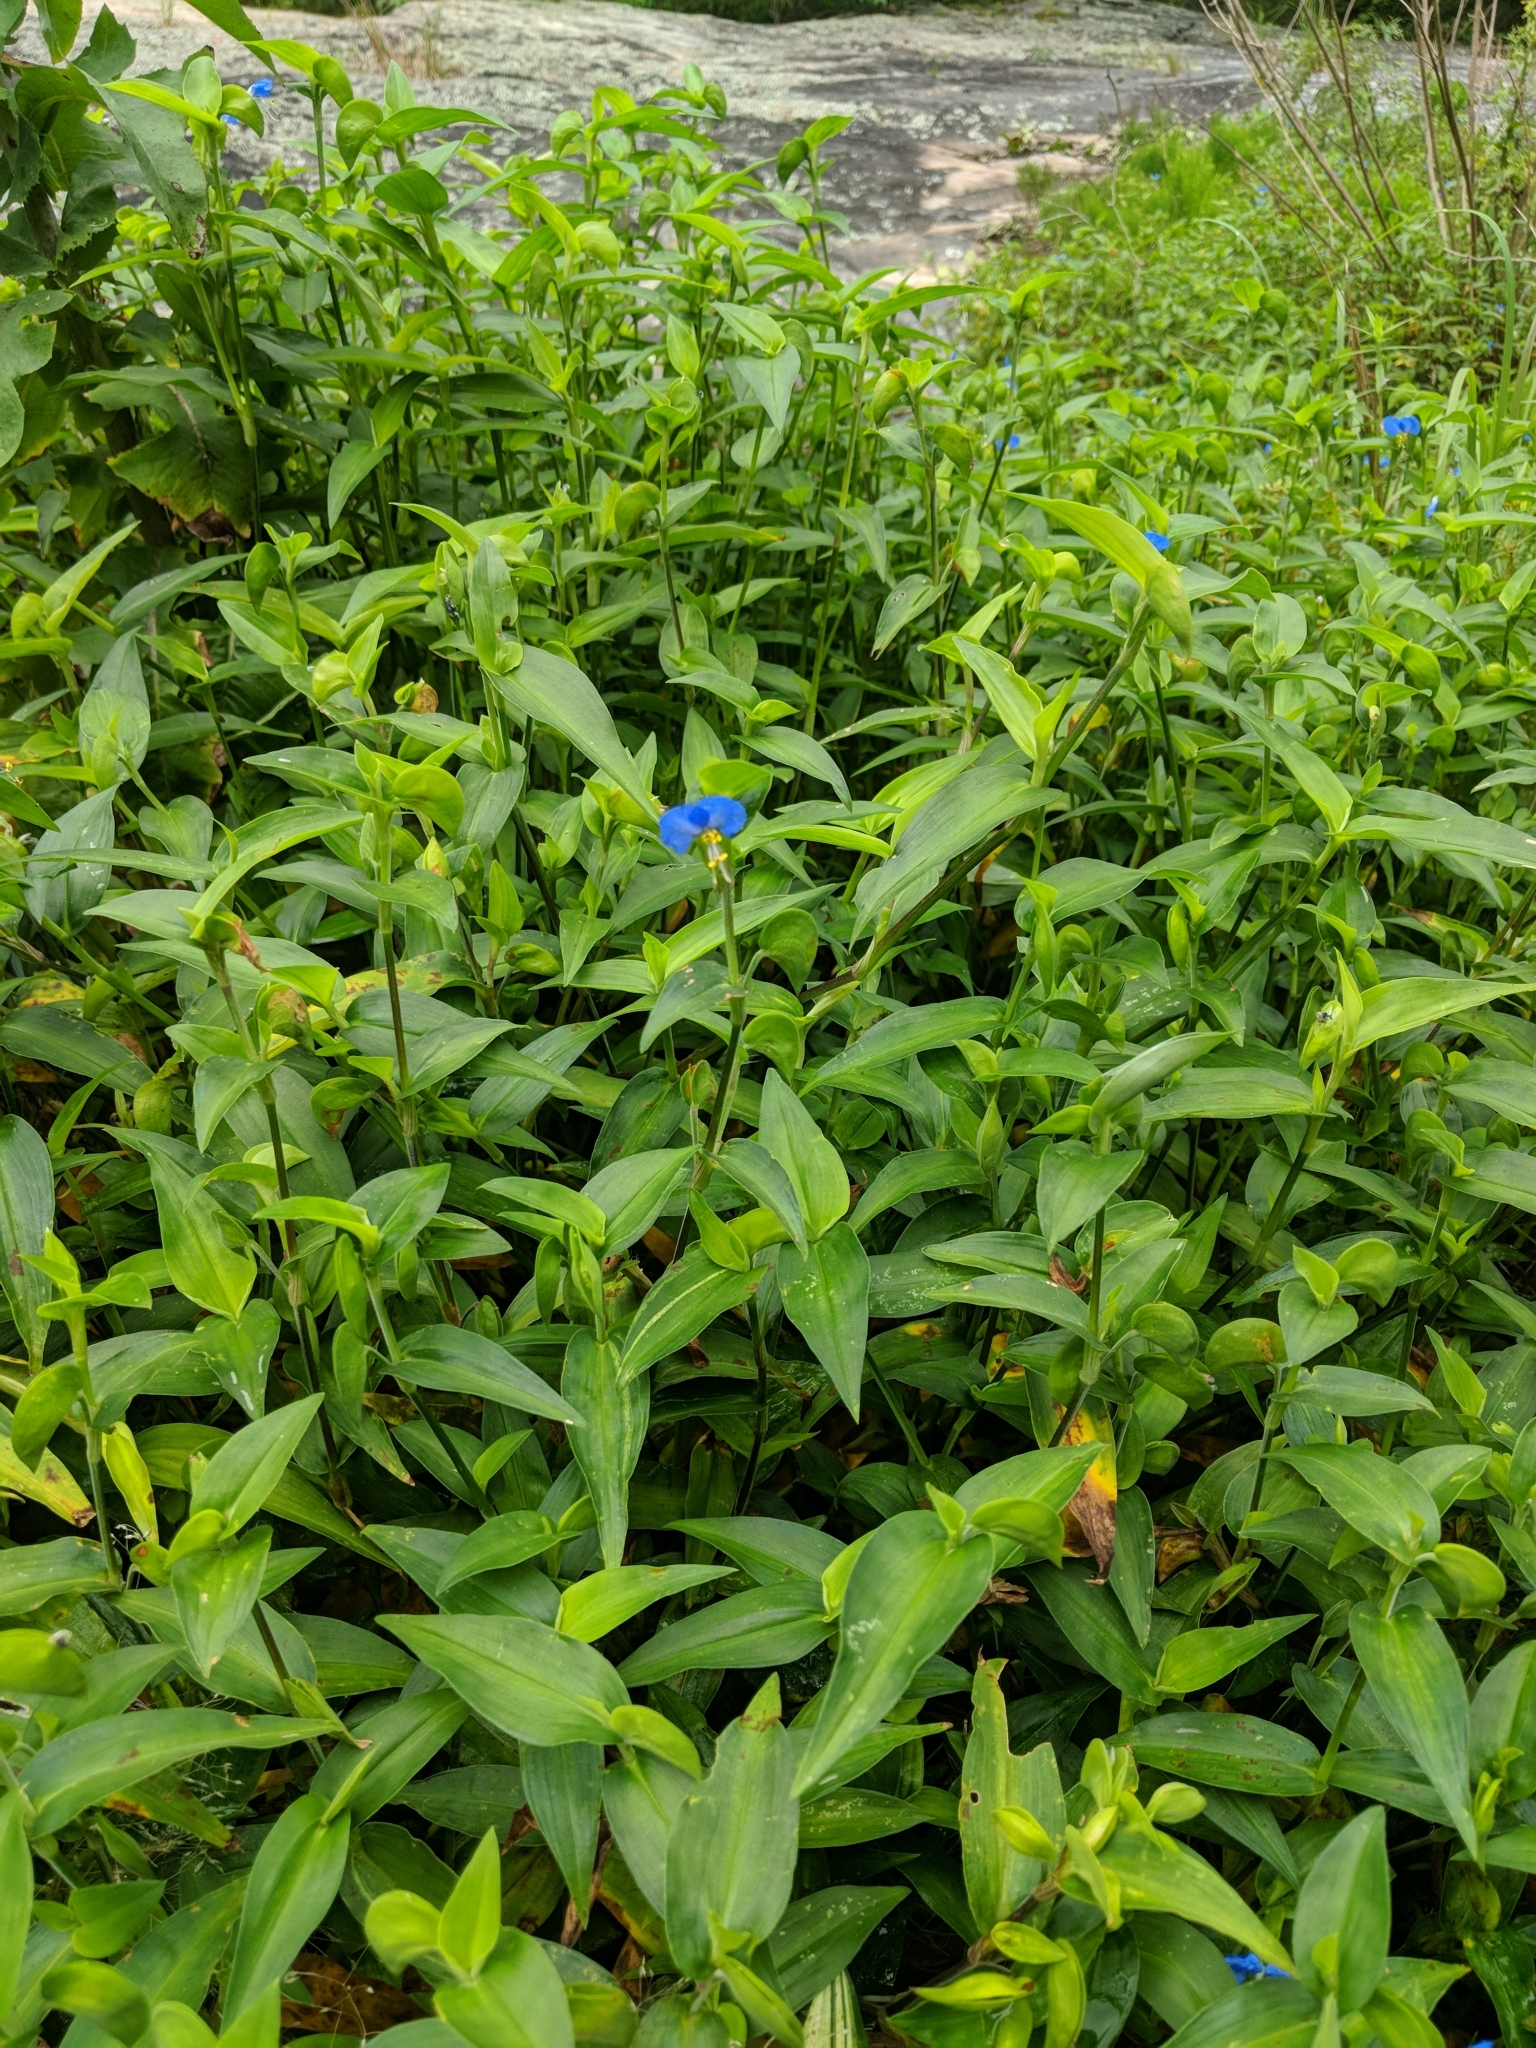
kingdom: Plantae
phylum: Tracheophyta
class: Liliopsida
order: Commelinales
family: Commelinaceae
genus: Commelina
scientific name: Commelina communis
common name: Asiatic dayflower
